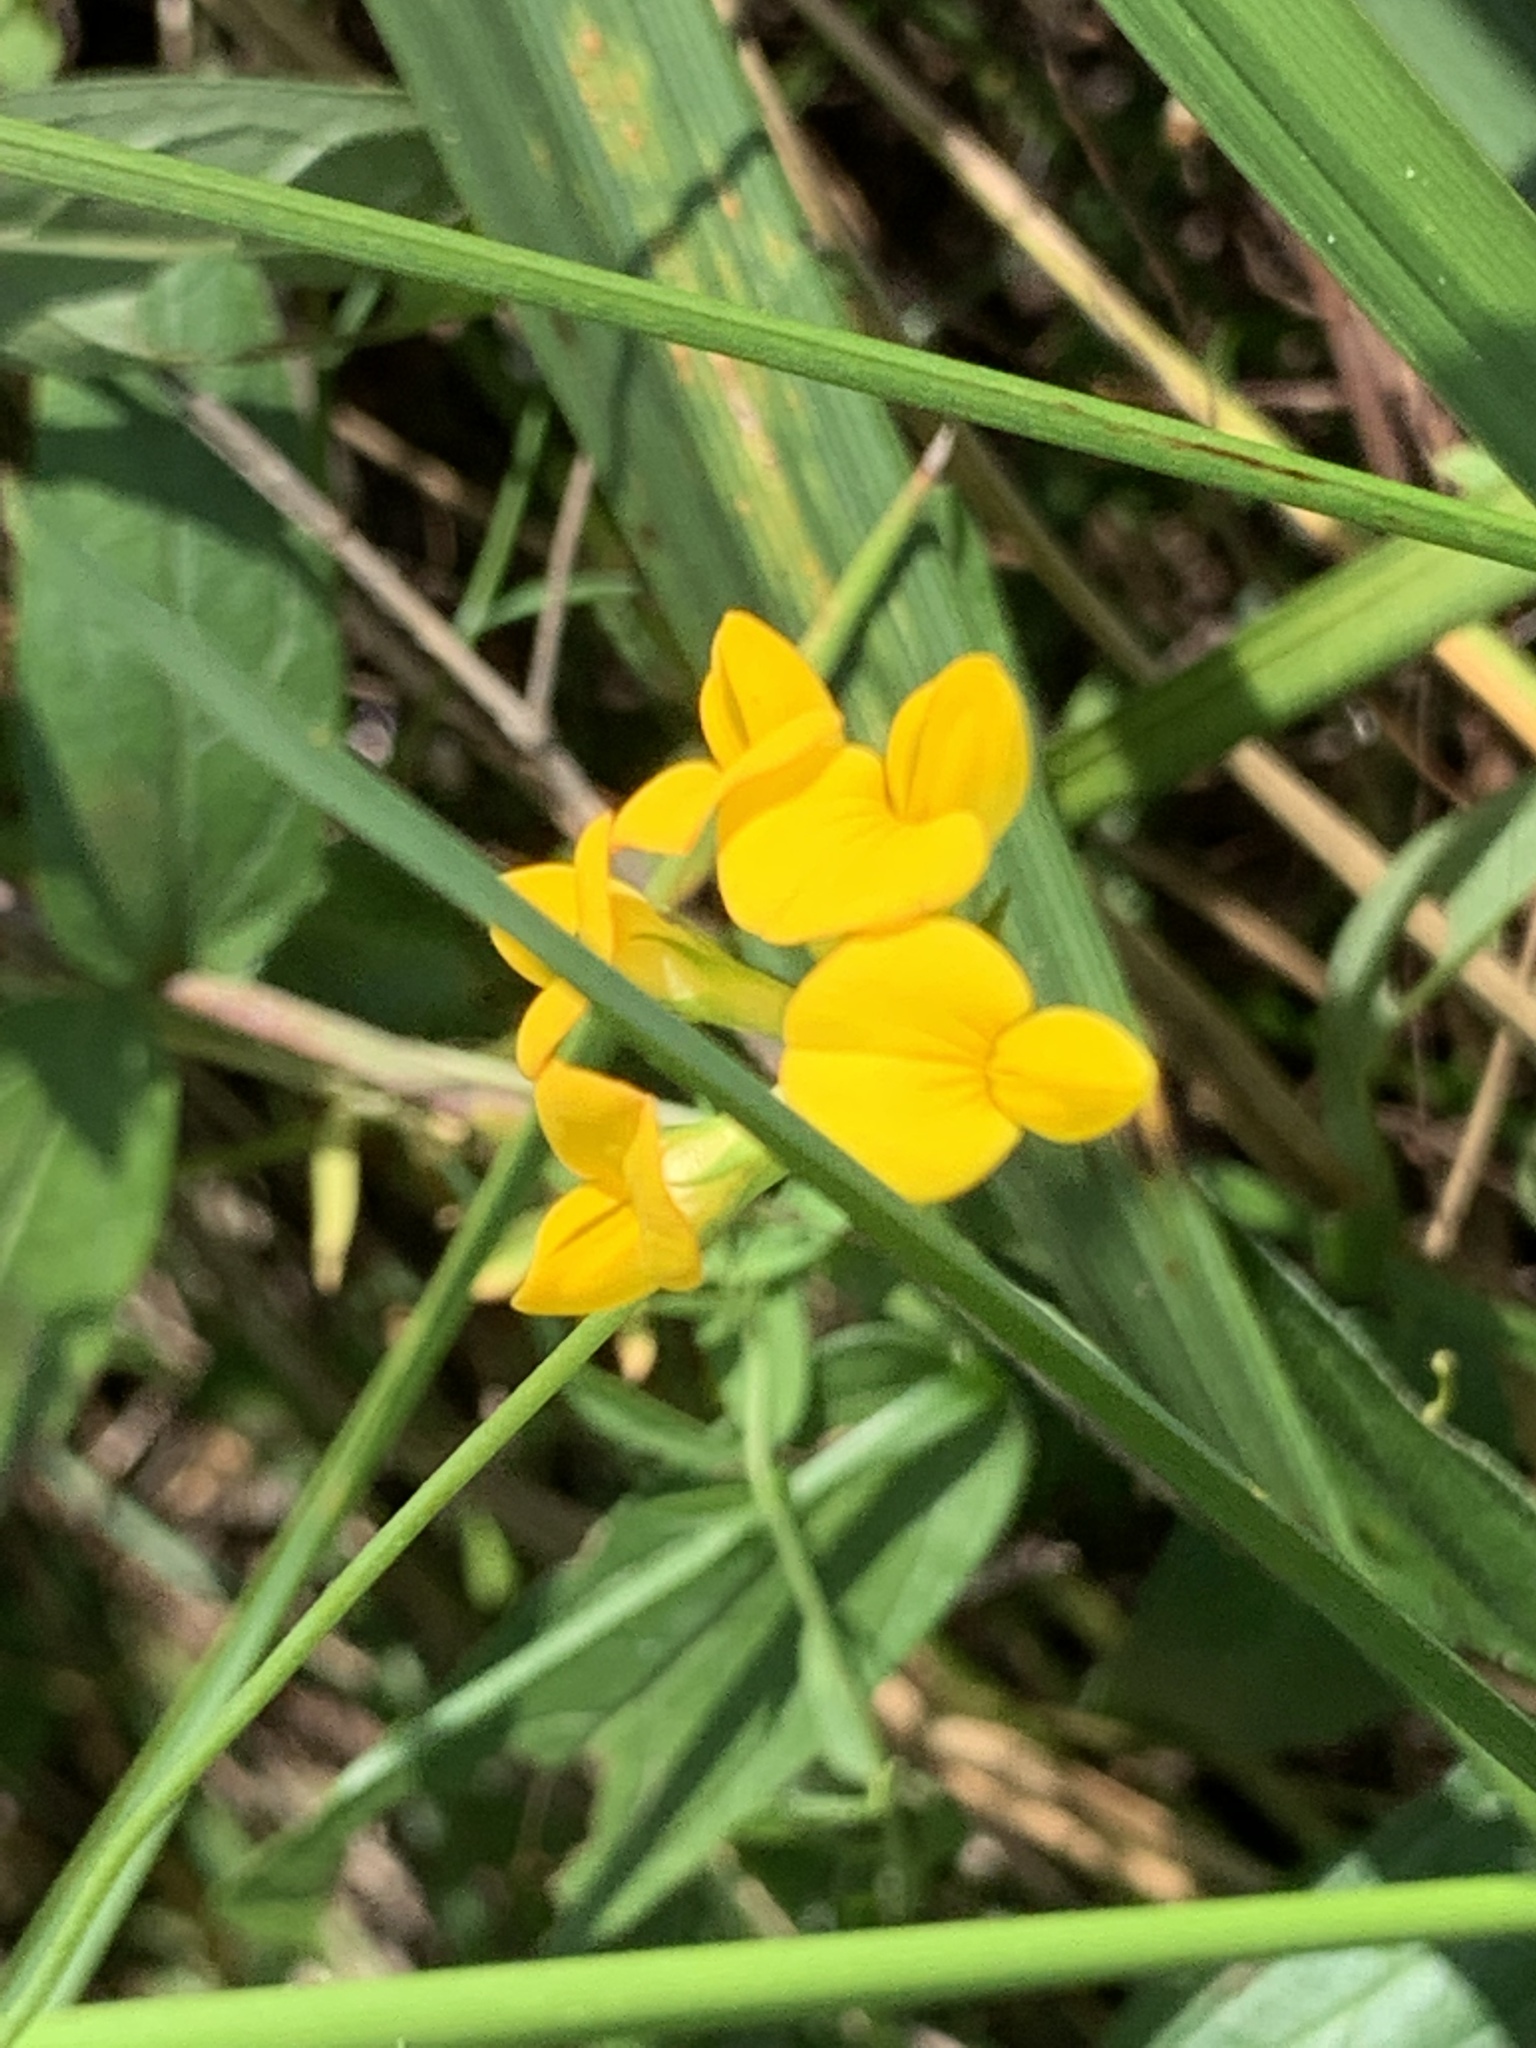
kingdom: Plantae
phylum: Tracheophyta
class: Magnoliopsida
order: Fabales
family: Fabaceae
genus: Lotus
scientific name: Lotus corniculatus
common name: Common bird's-foot-trefoil
